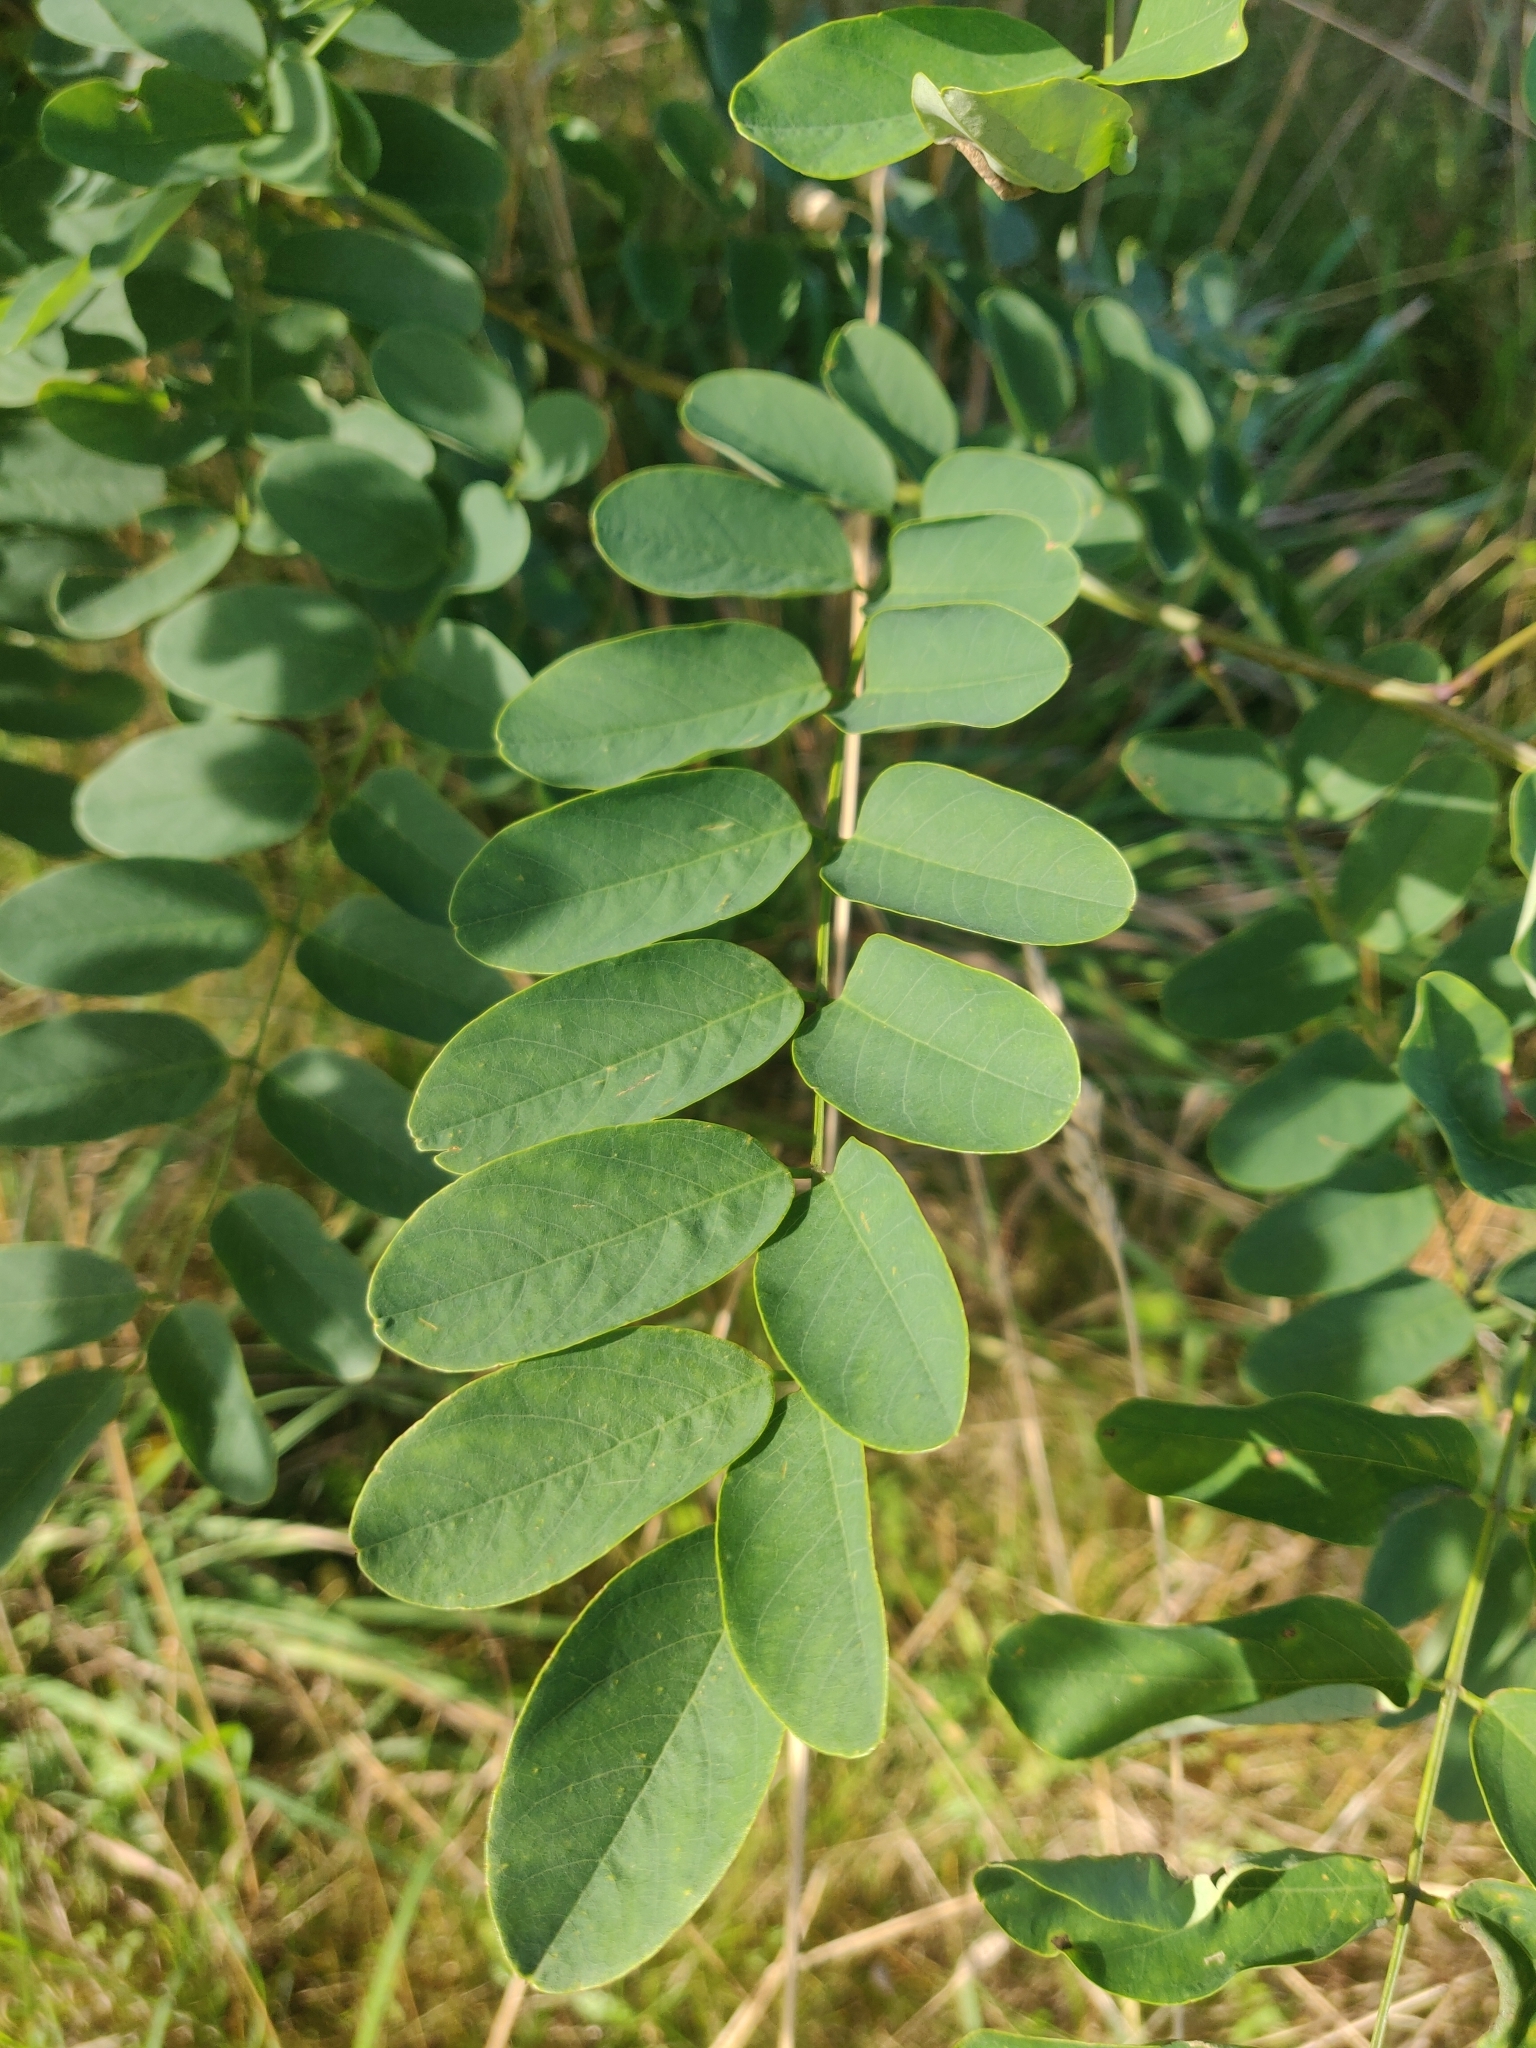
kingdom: Plantae
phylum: Tracheophyta
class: Magnoliopsida
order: Fabales
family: Fabaceae
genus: Robinia
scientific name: Robinia pseudoacacia
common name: Black locust
